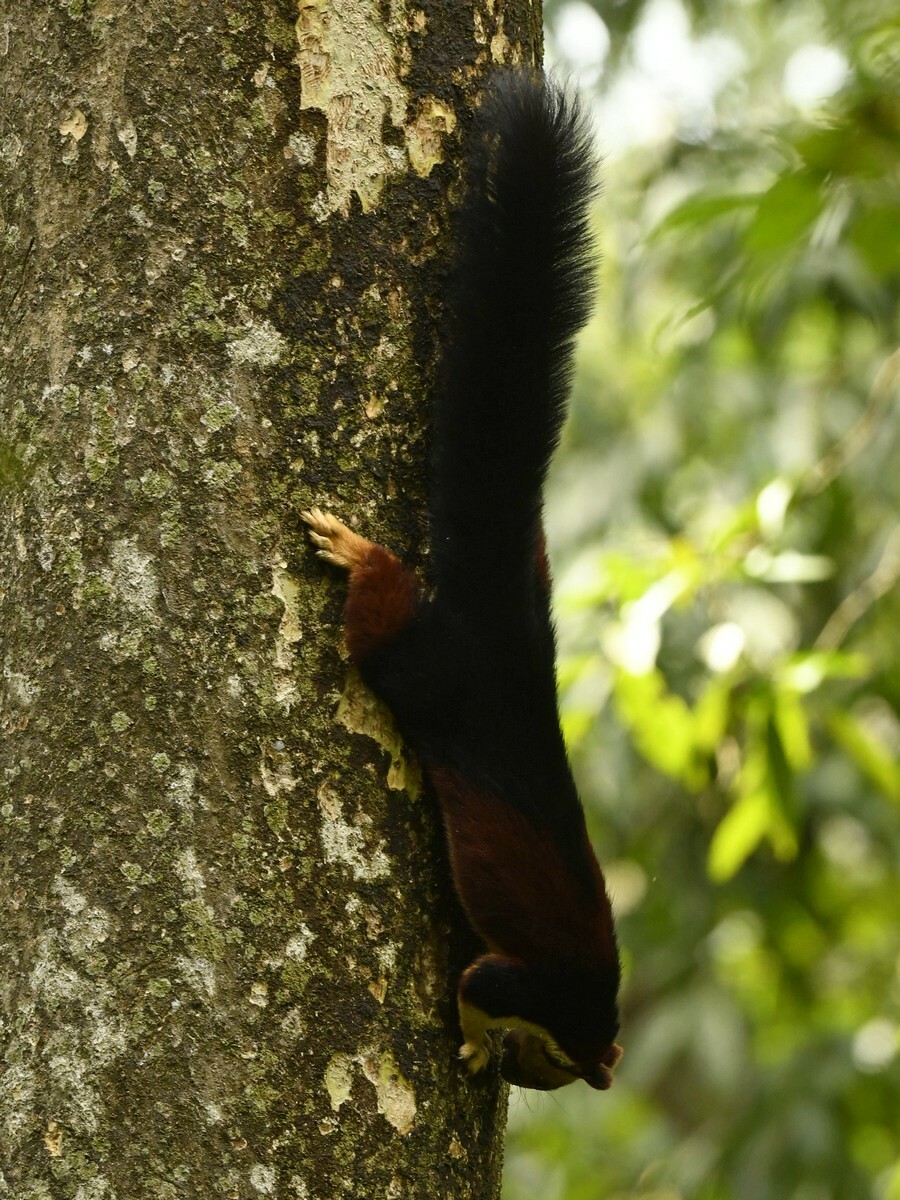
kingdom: Animalia
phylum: Chordata
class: Mammalia
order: Rodentia
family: Sciuridae
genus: Ratufa
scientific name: Ratufa indica
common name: Indian giant squirrel
